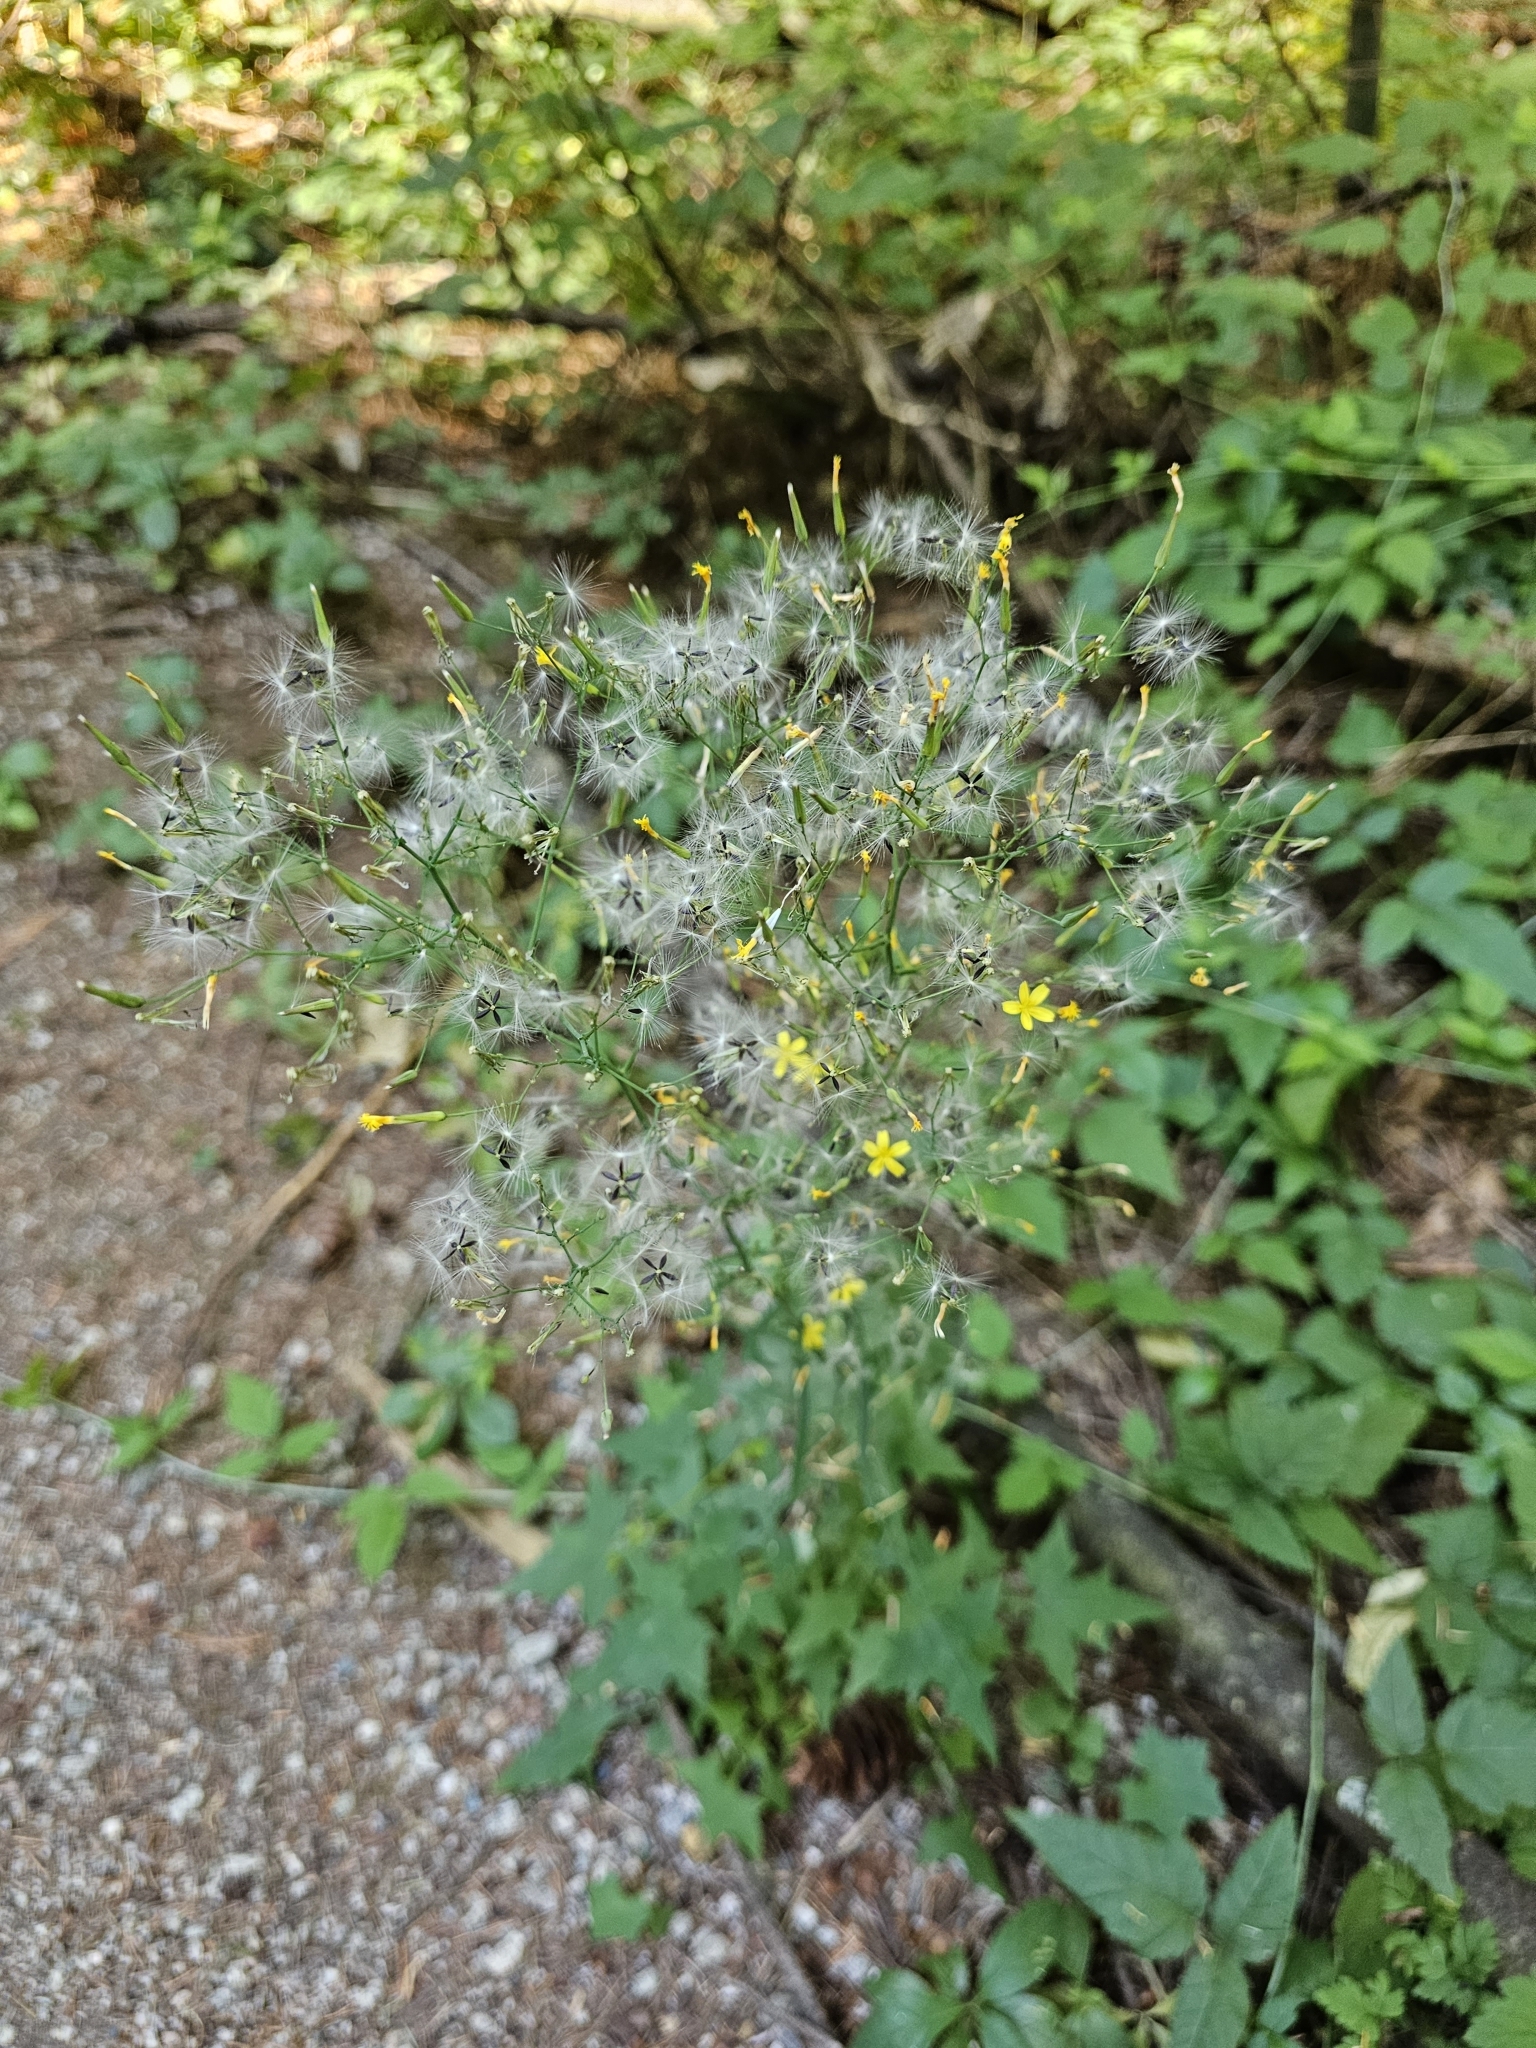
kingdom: Plantae
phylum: Tracheophyta
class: Magnoliopsida
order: Asterales
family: Asteraceae
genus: Mycelis
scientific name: Mycelis muralis
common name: Wall lettuce
